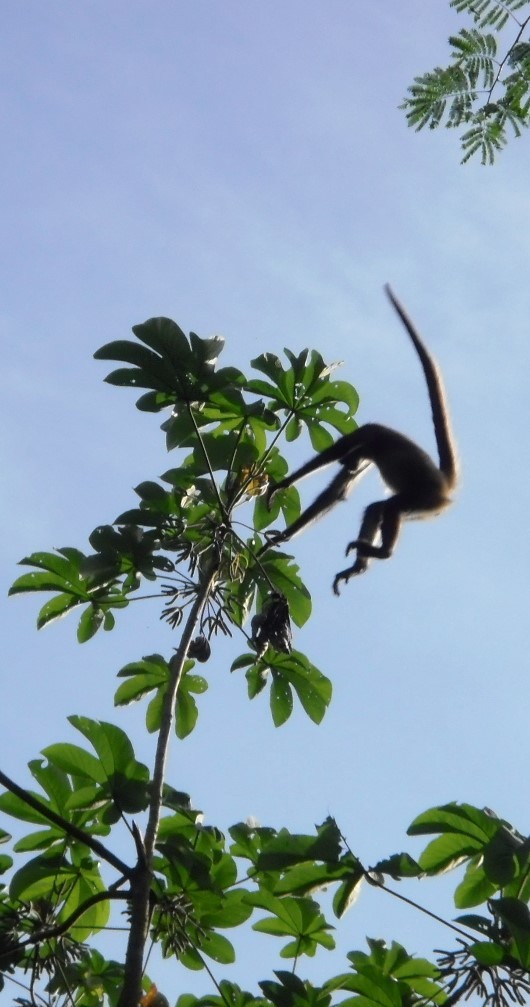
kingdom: Animalia
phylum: Chordata
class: Mammalia
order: Primates
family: Atelidae
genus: Ateles
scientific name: Ateles geoffroyi
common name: Black-handed spider monkey
